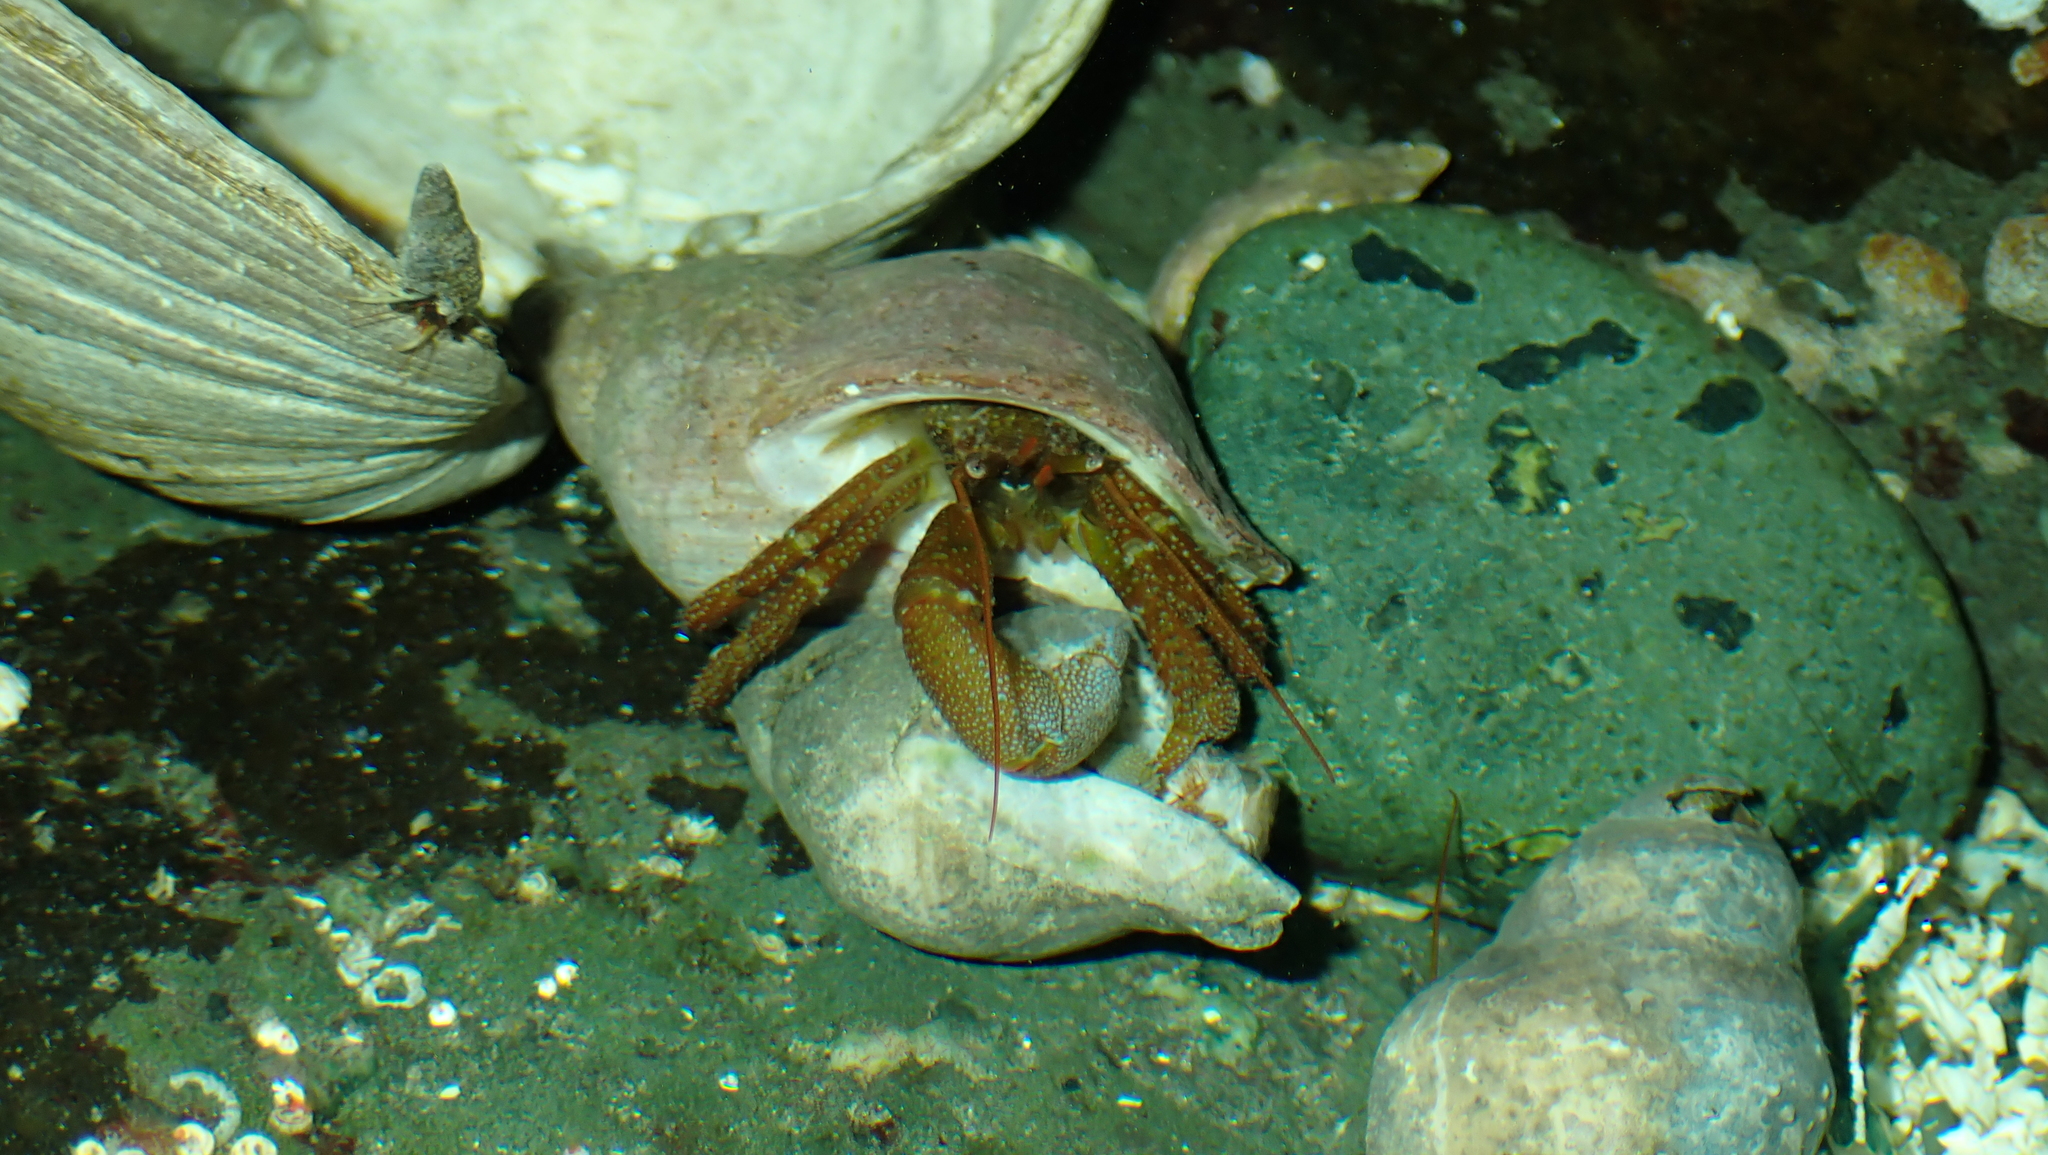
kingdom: Animalia
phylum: Arthropoda
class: Malacostraca
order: Decapoda
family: Paguridae
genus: Pagurus
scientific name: Pagurus granosimanus
